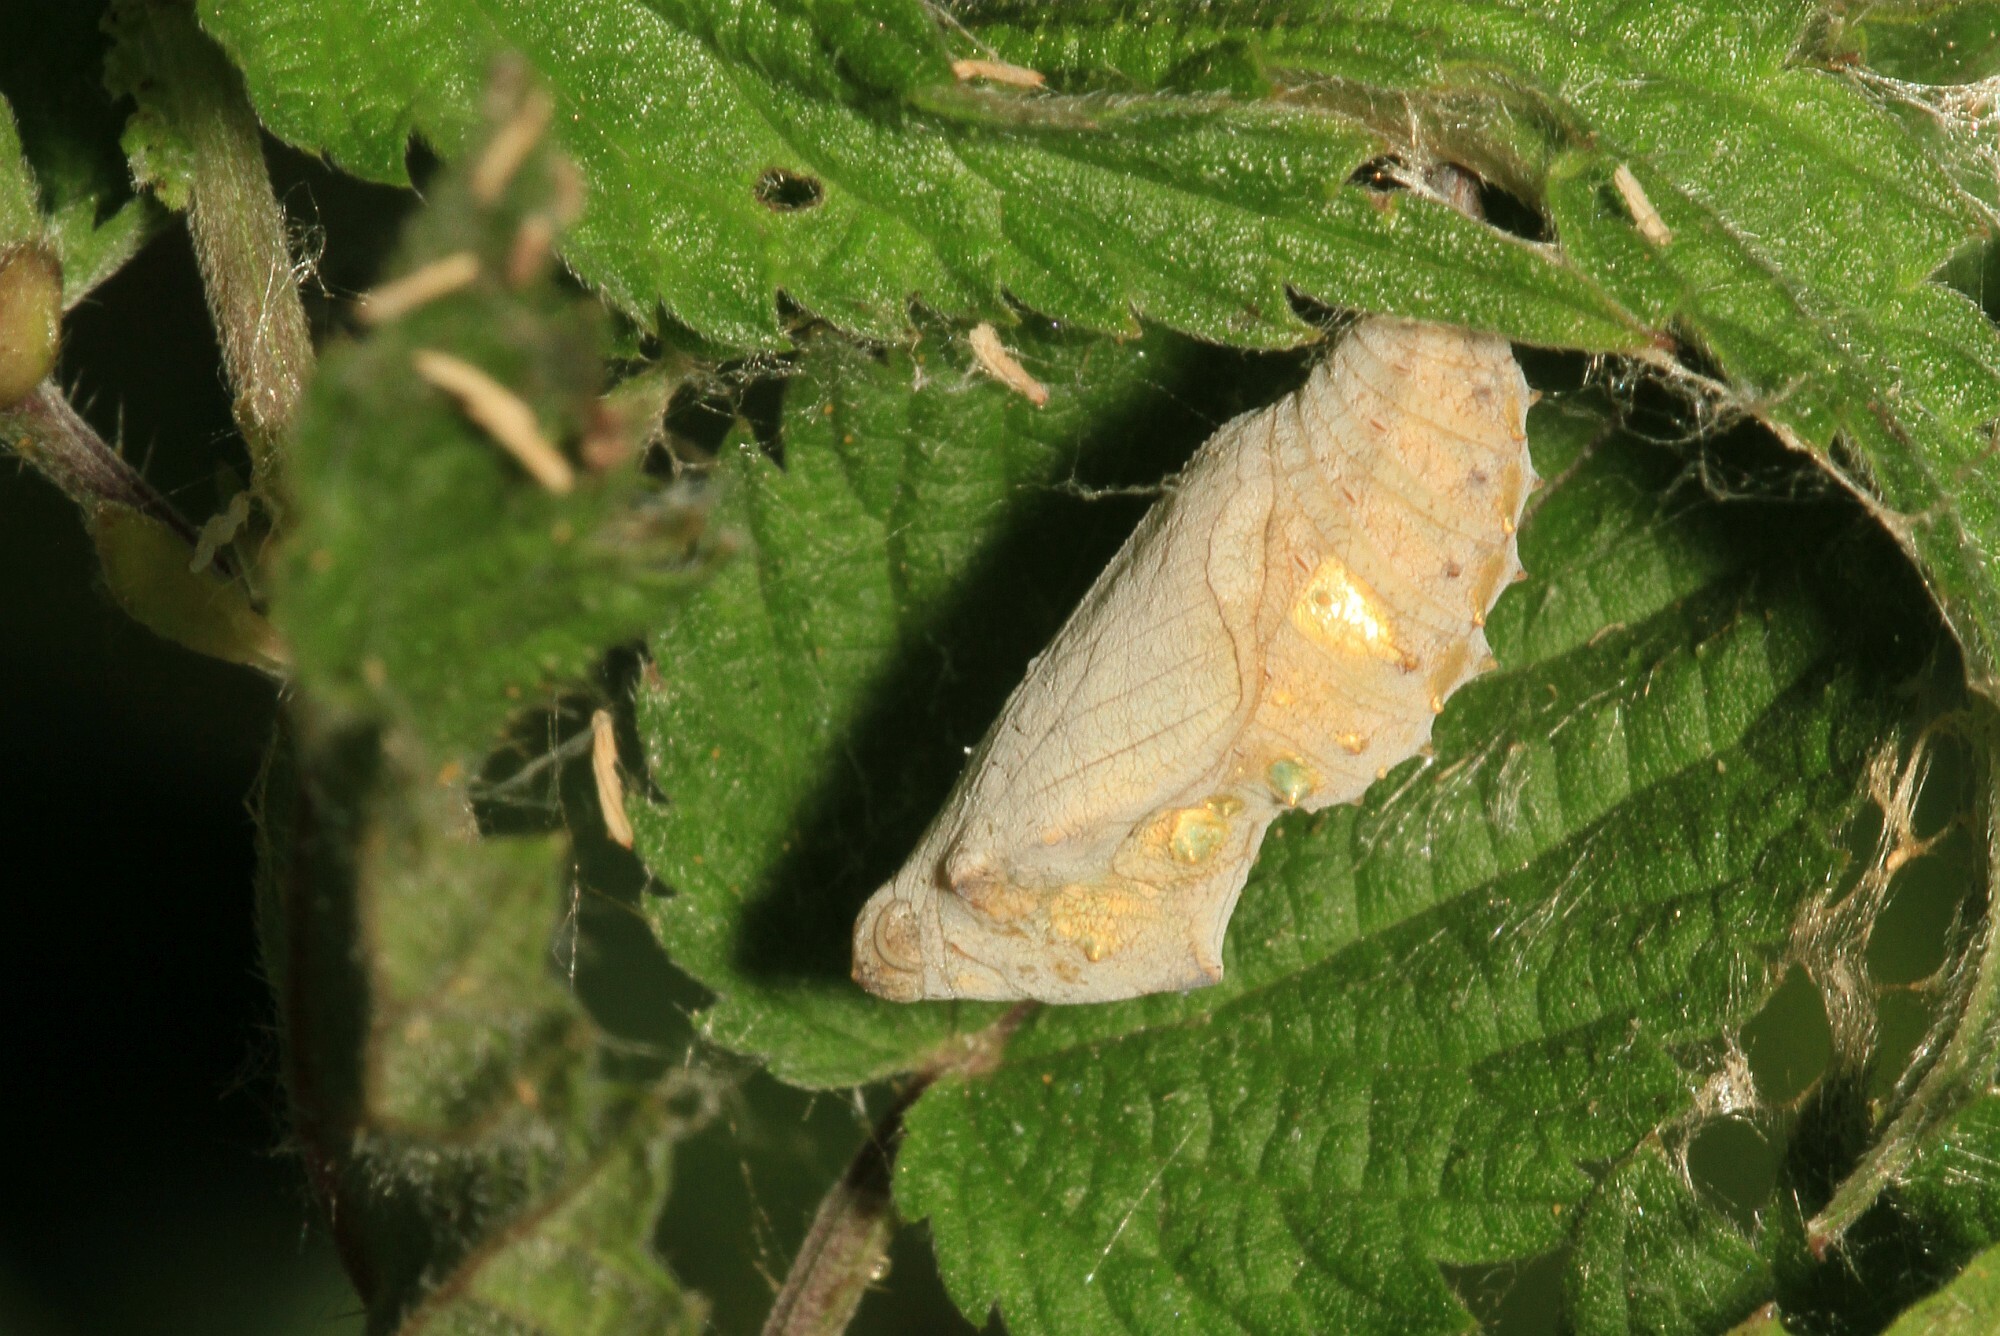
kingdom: Animalia
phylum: Arthropoda
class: Insecta
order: Lepidoptera
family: Nymphalidae
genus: Vanessa
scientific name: Vanessa atalanta
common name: Red admiral
